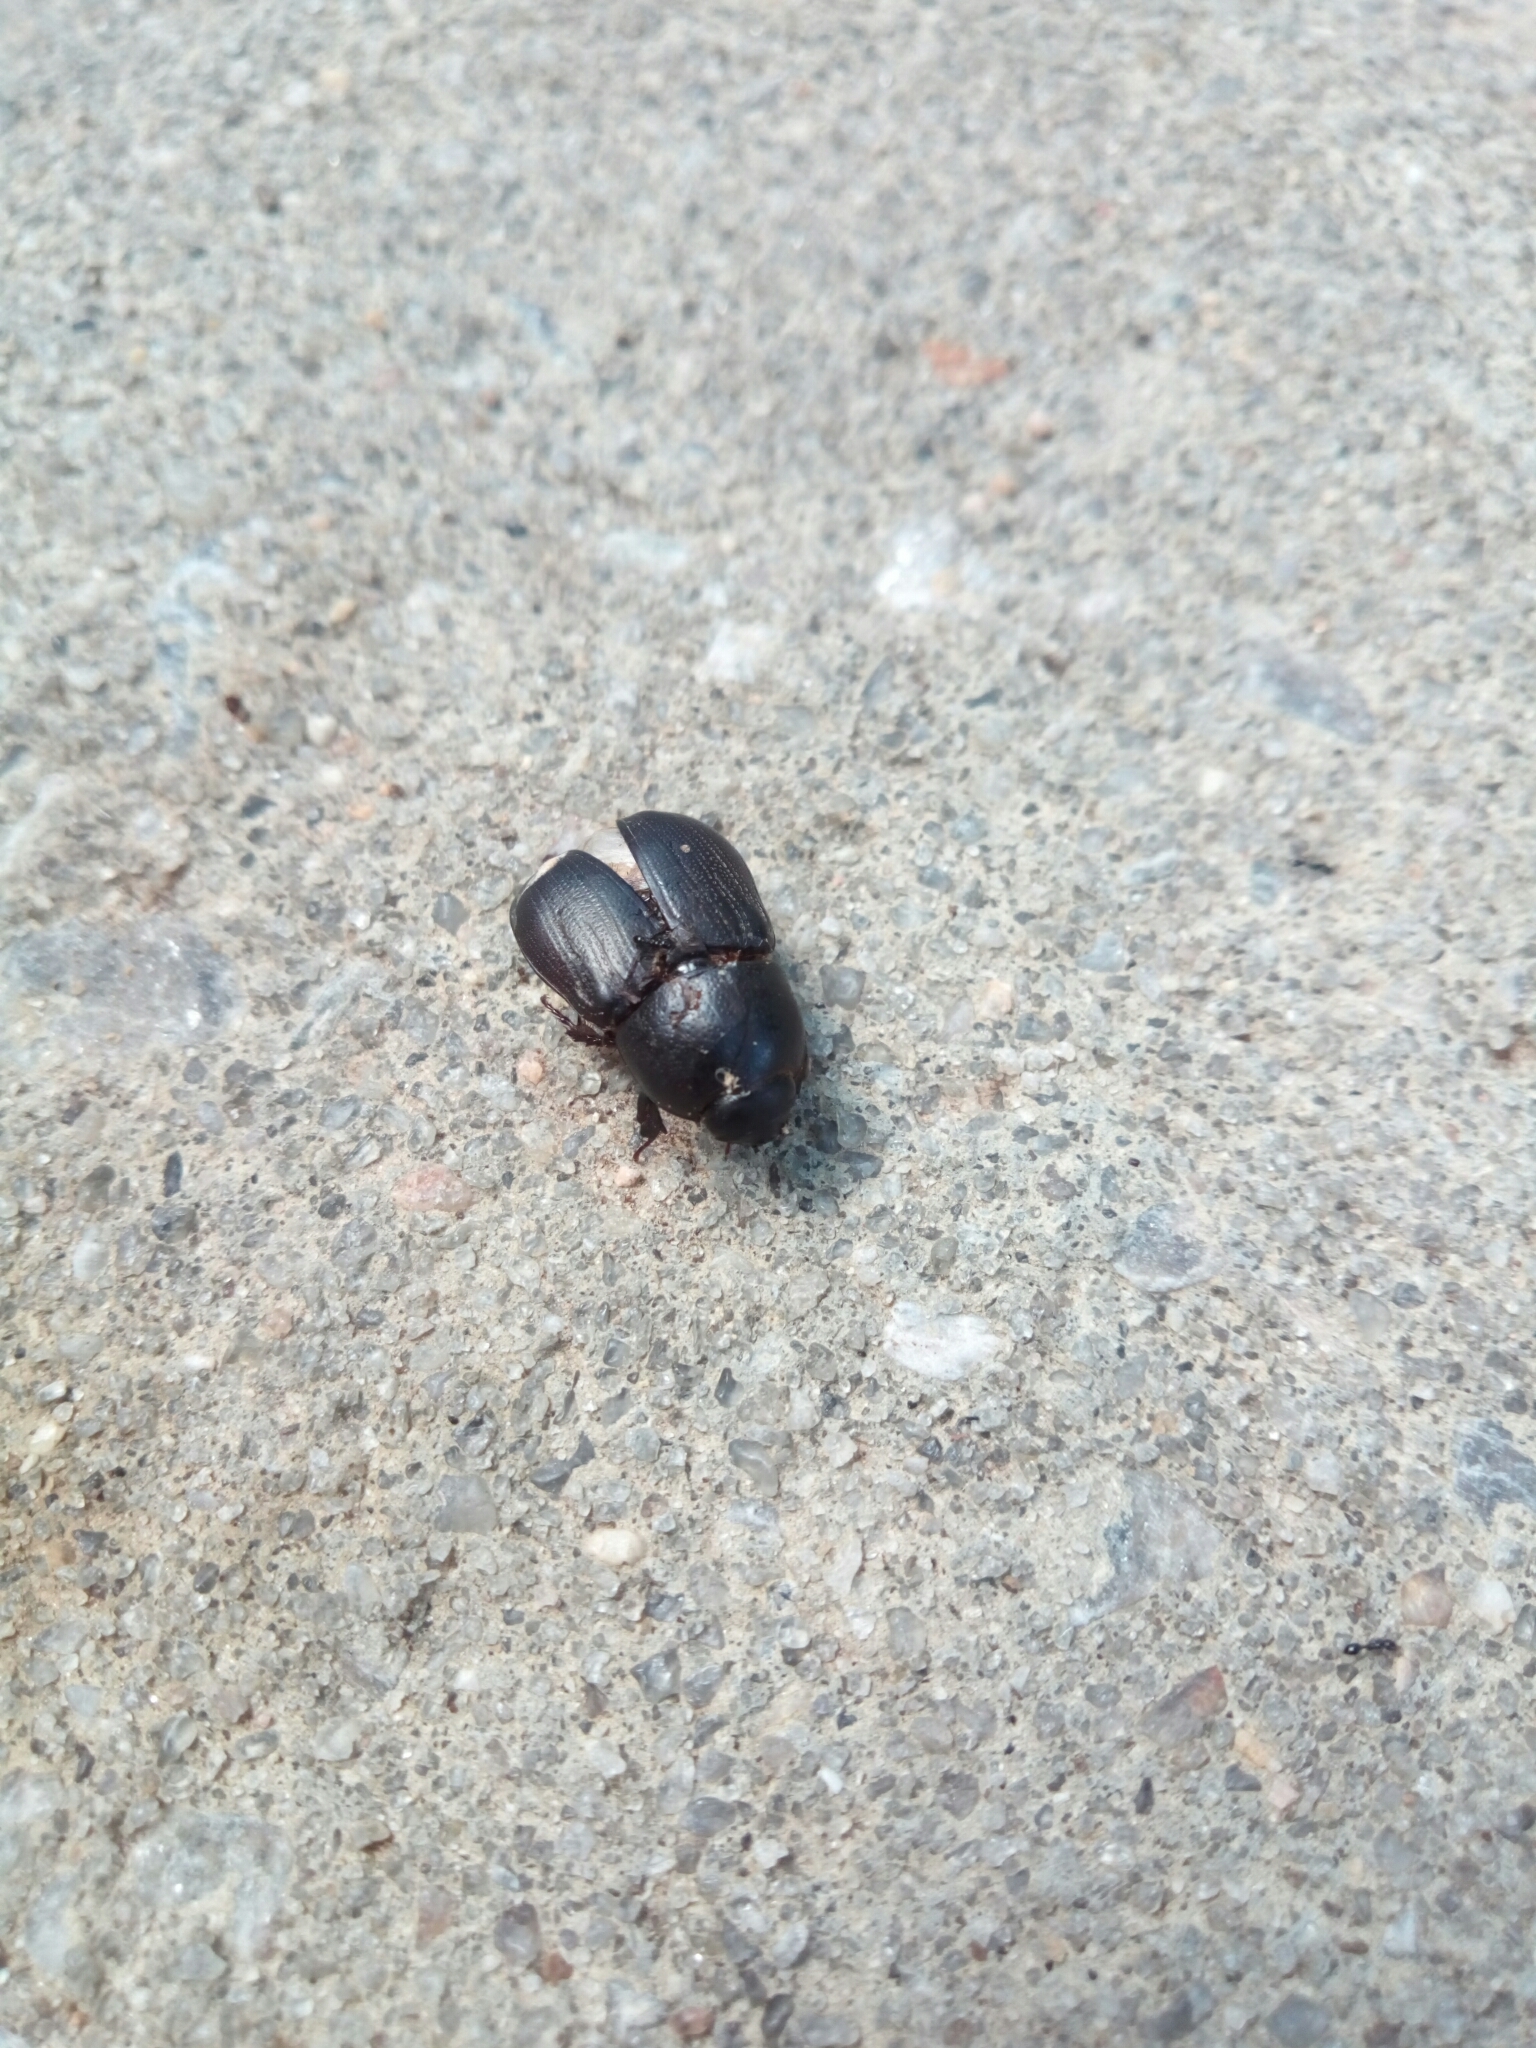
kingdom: Animalia
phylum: Arthropoda
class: Insecta
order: Coleoptera
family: Scarabaeidae
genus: Euetheola
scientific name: Euetheola humilis
